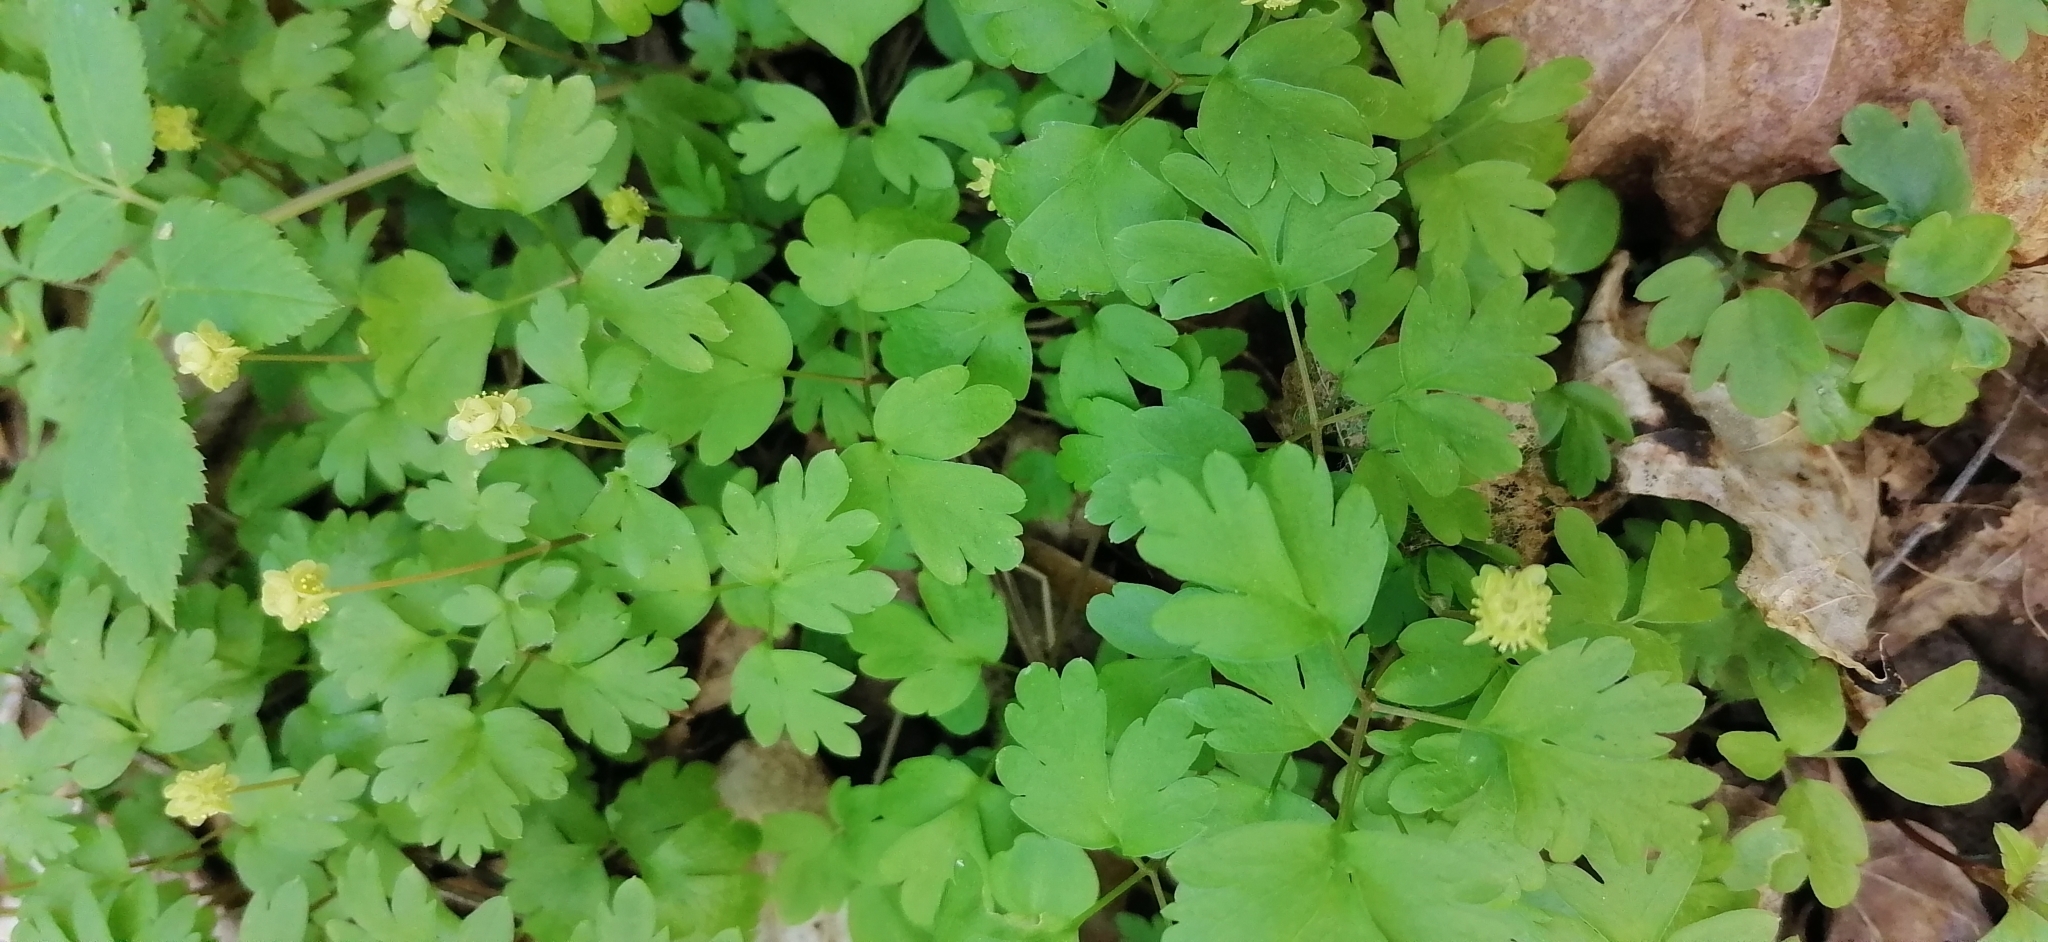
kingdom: Plantae
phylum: Tracheophyta
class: Magnoliopsida
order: Dipsacales
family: Viburnaceae
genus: Adoxa
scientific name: Adoxa moschatellina
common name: Moschatel
